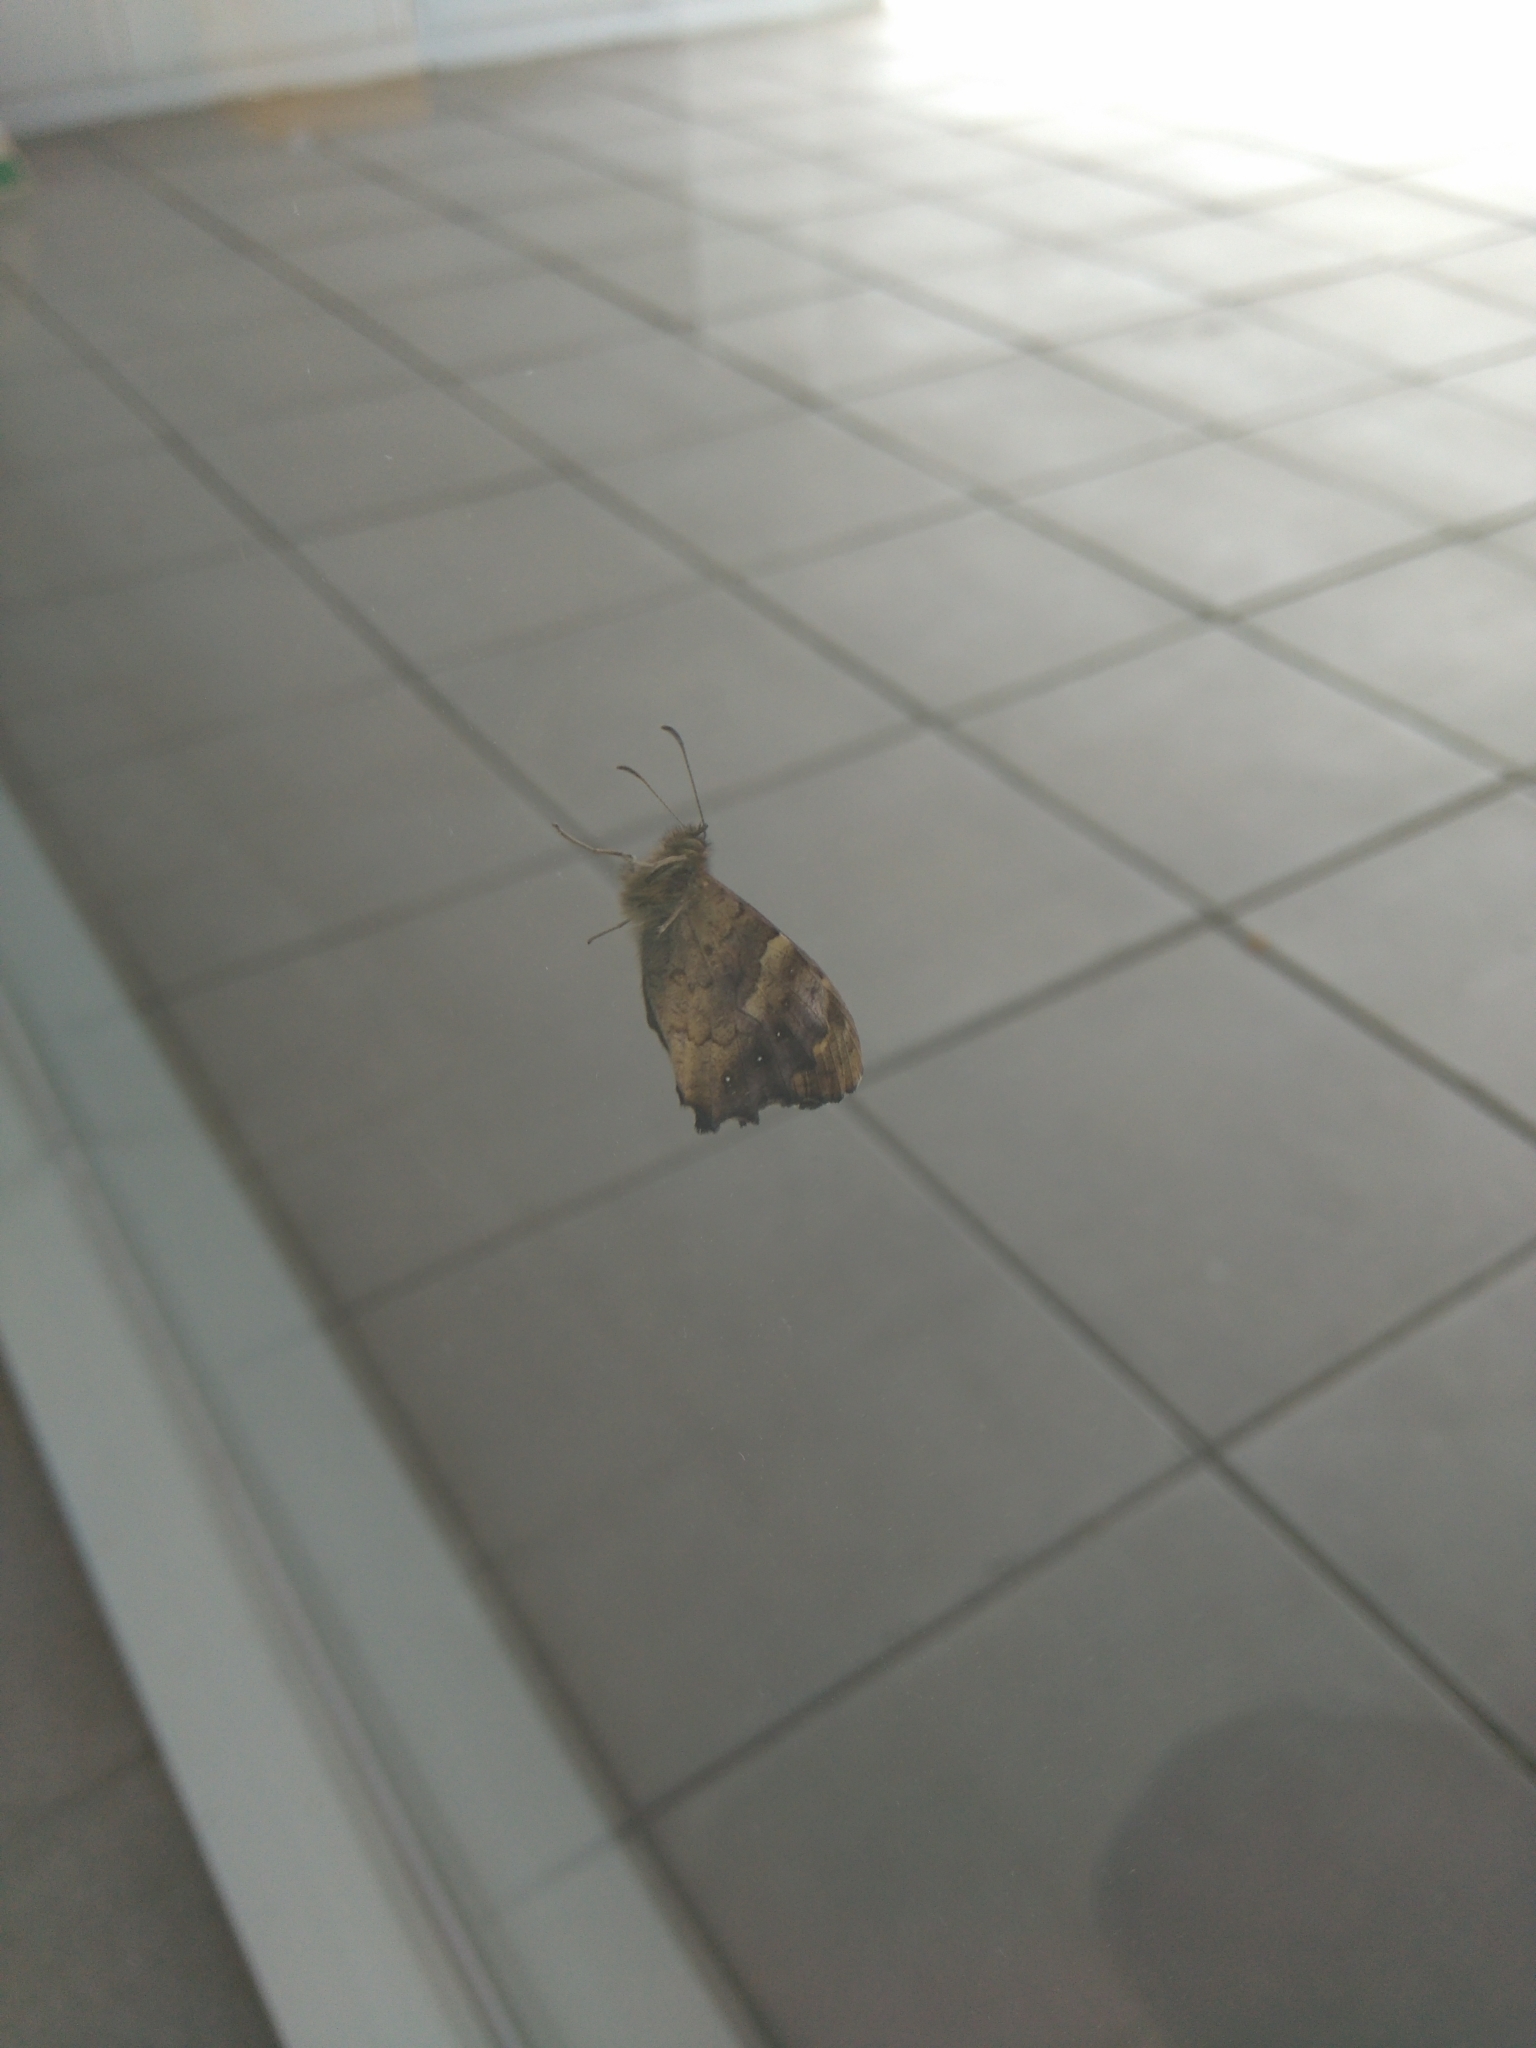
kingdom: Animalia
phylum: Arthropoda
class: Insecta
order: Lepidoptera
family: Nymphalidae
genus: Pararge
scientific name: Pararge aegeria
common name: Speckled wood
